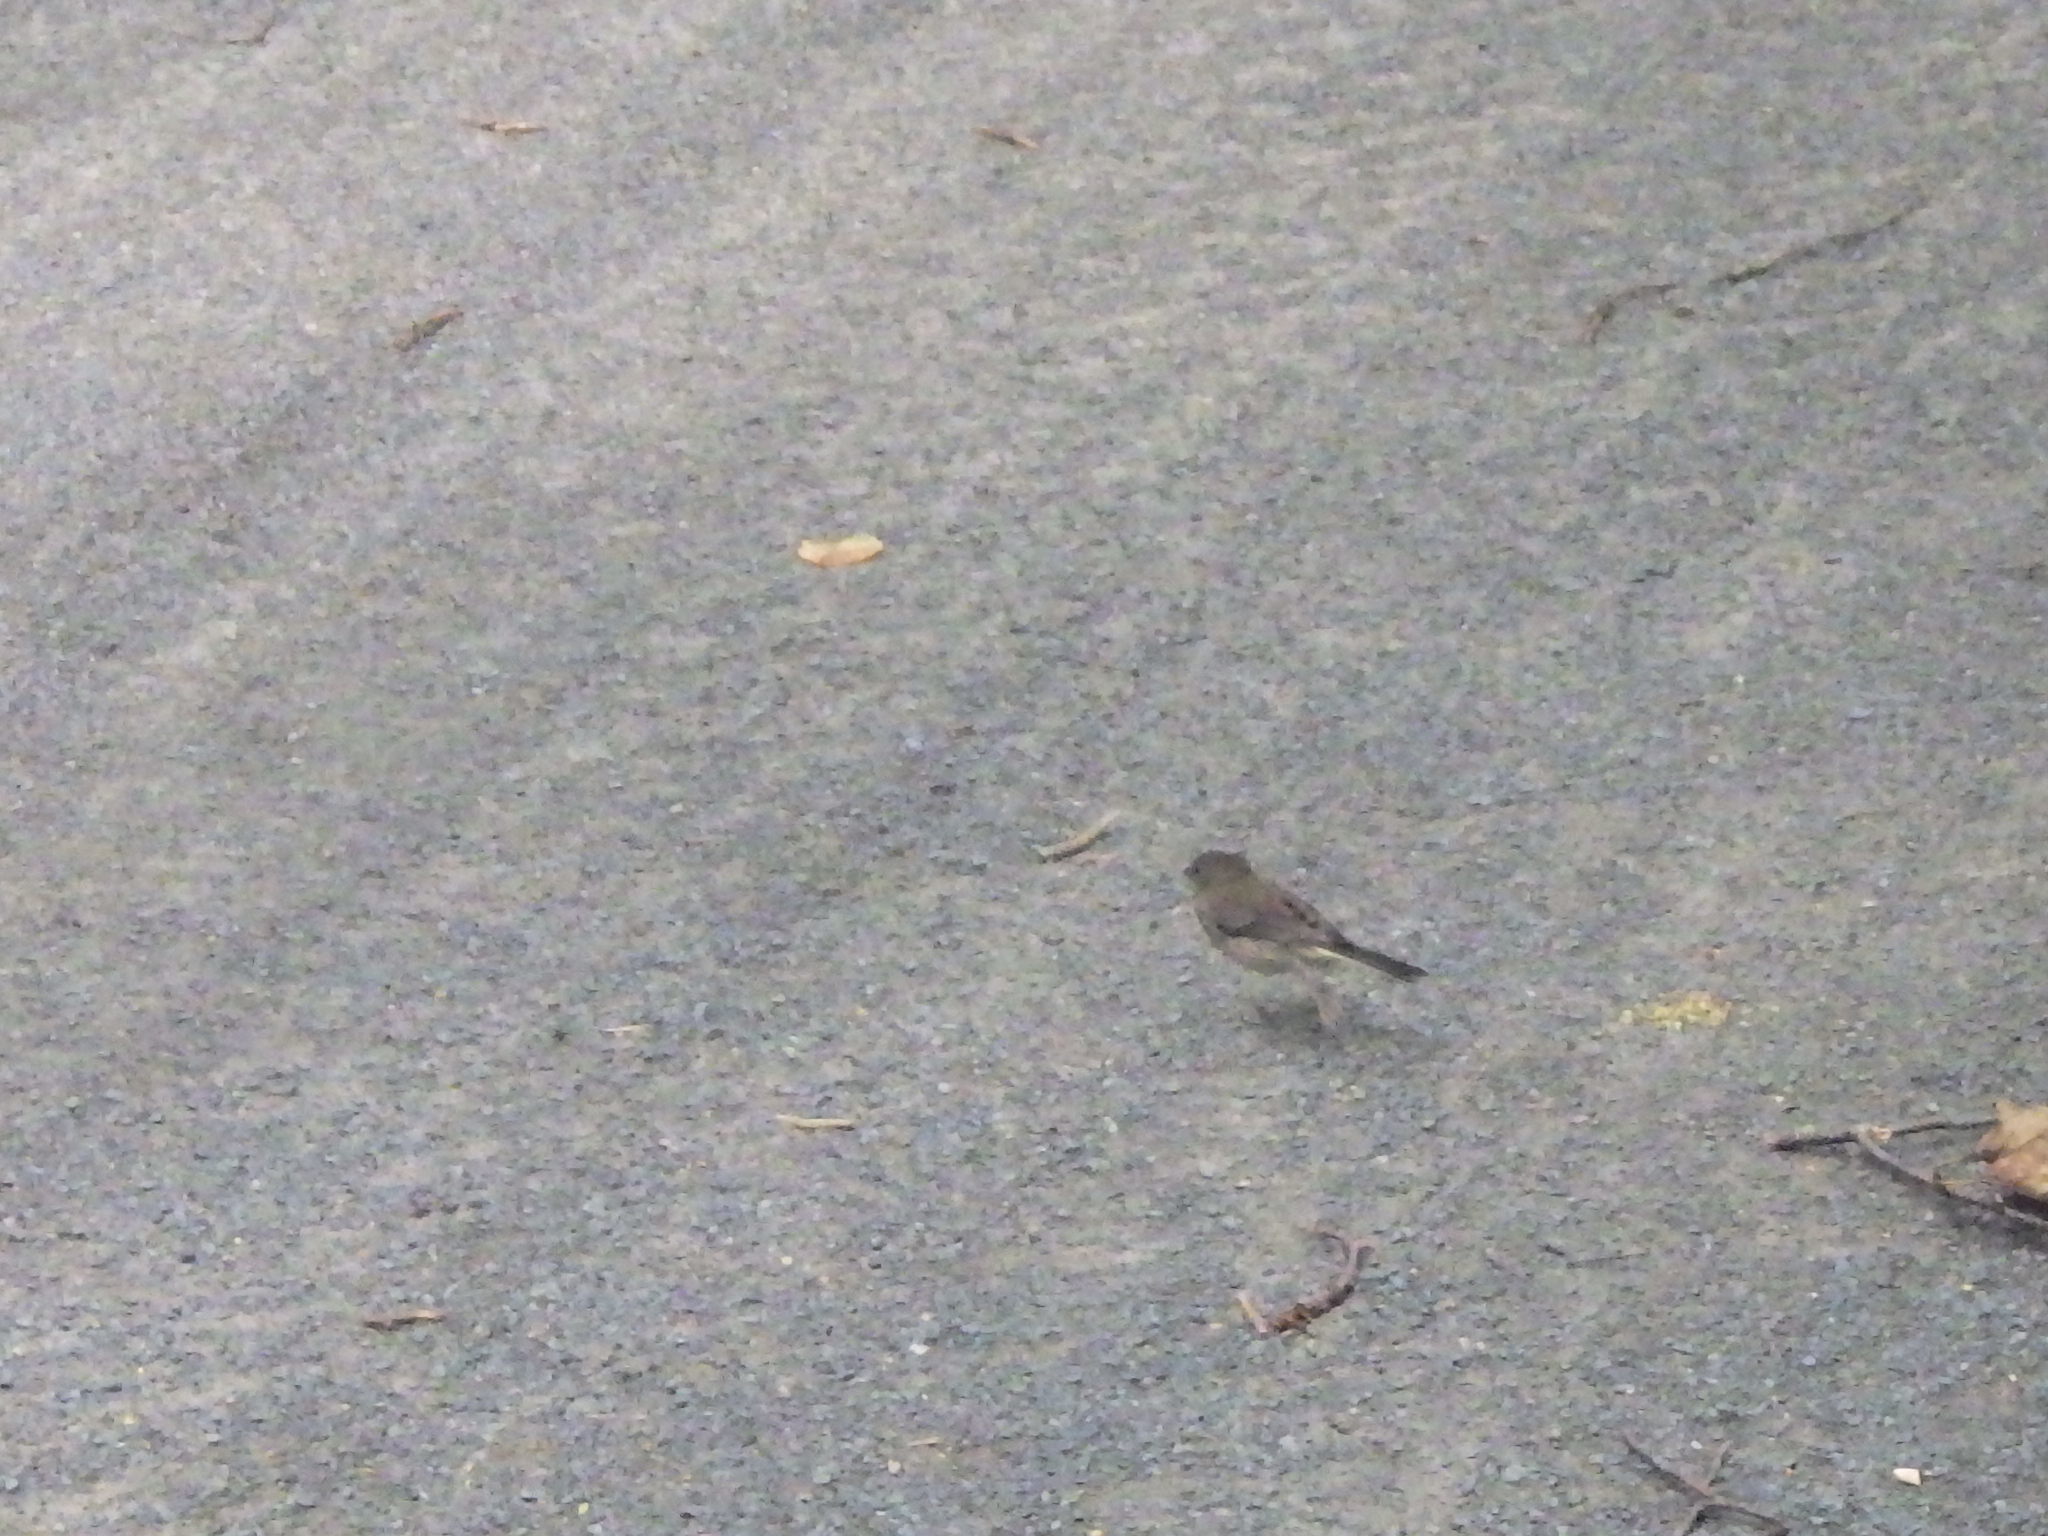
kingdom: Animalia
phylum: Chordata
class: Aves
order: Passeriformes
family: Passerellidae
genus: Junco
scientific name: Junco hyemalis
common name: Dark-eyed junco
